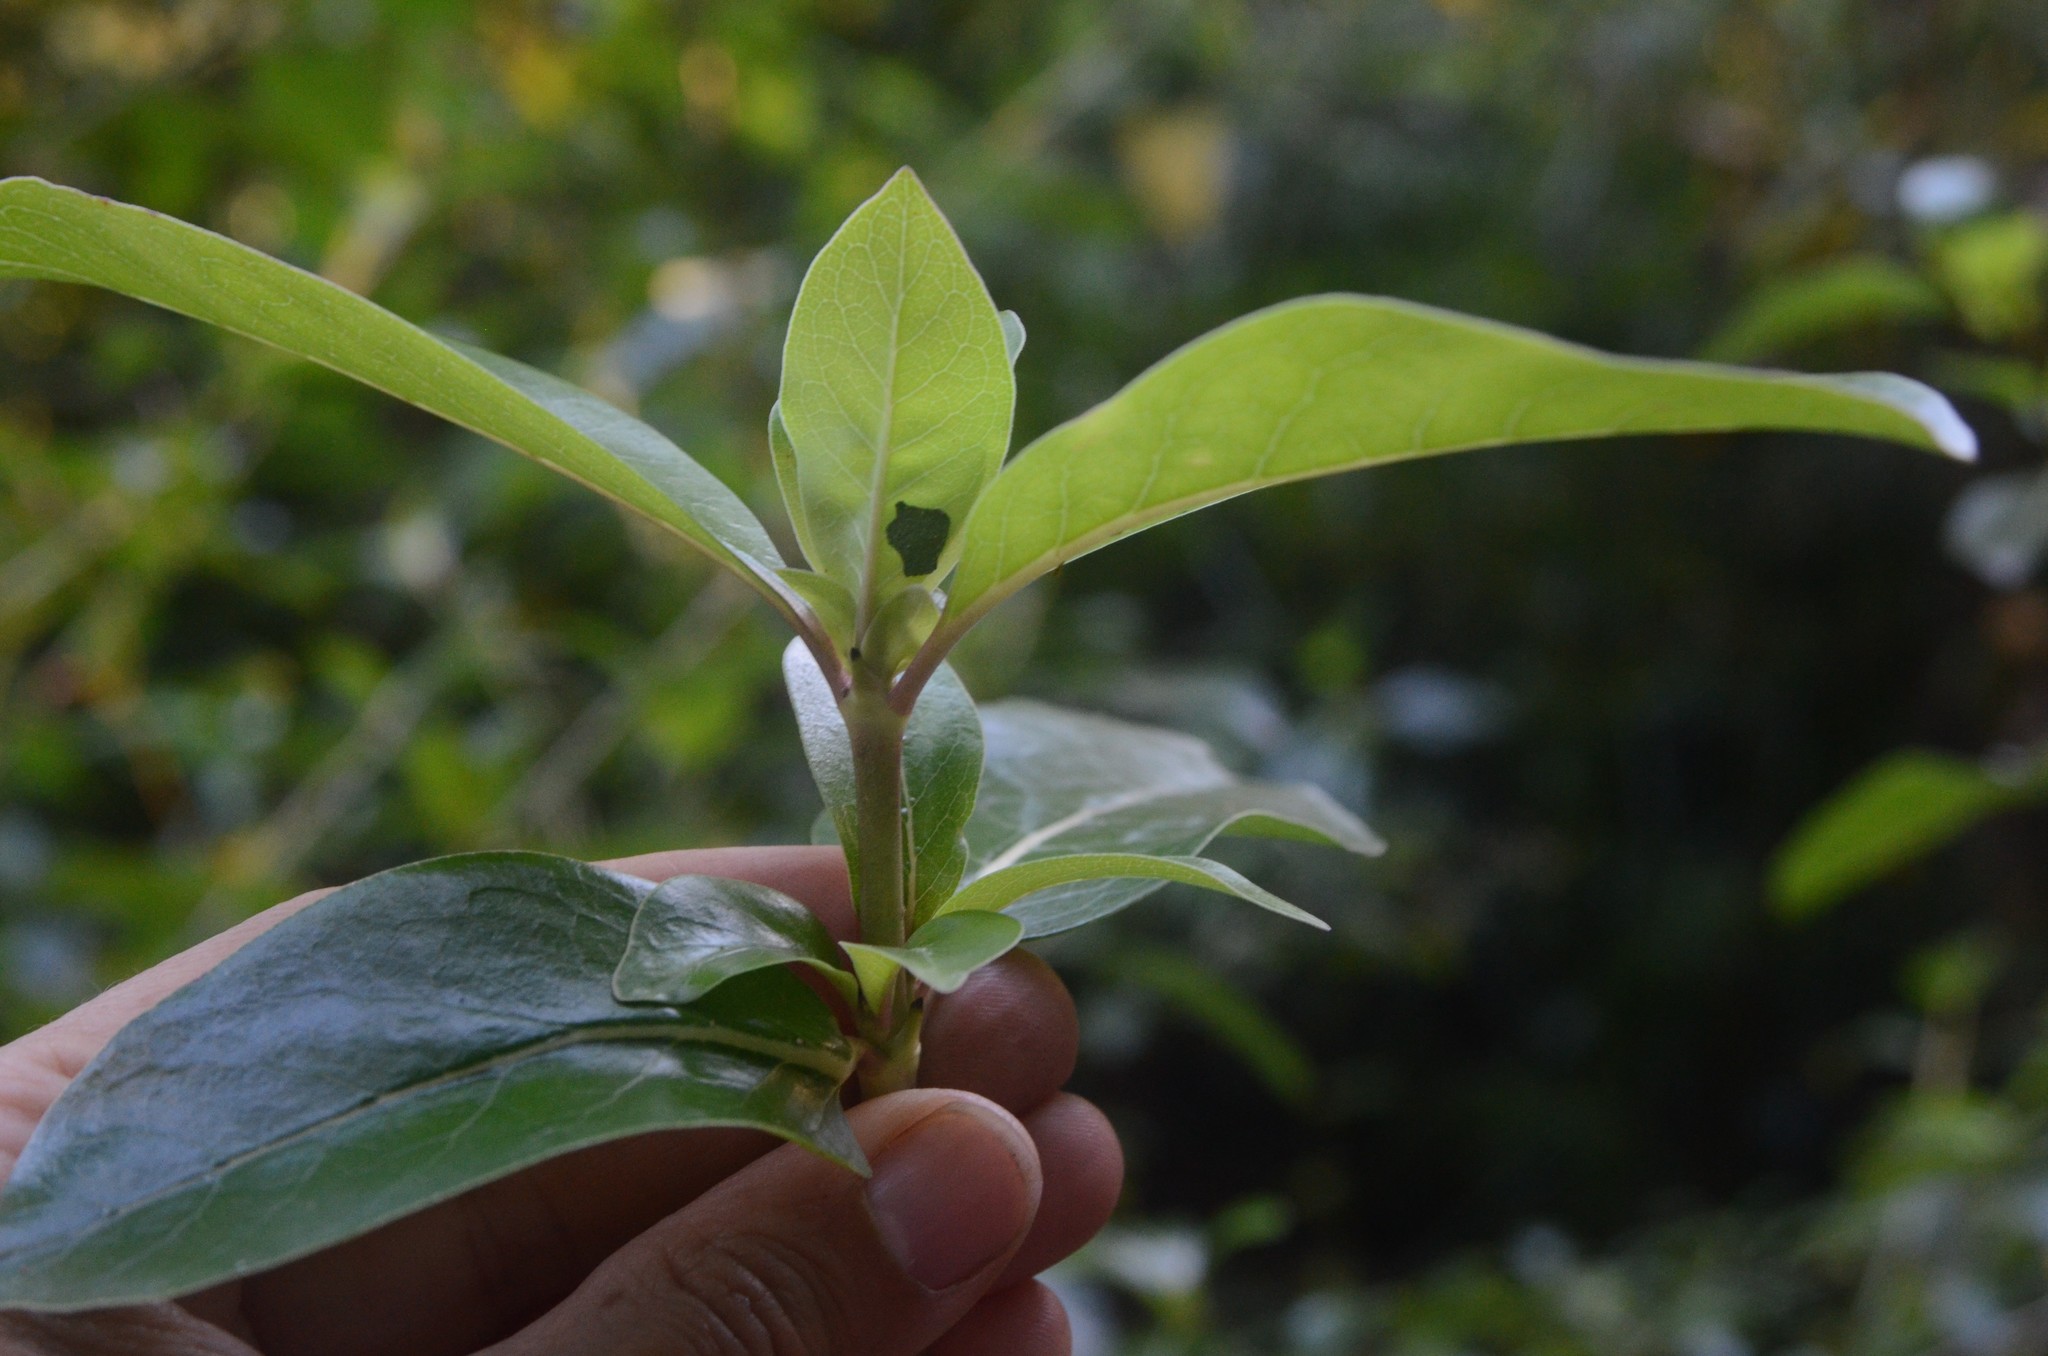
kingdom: Plantae
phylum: Tracheophyta
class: Magnoliopsida
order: Gentianales
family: Rubiaceae
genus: Coprosma
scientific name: Coprosma robusta
